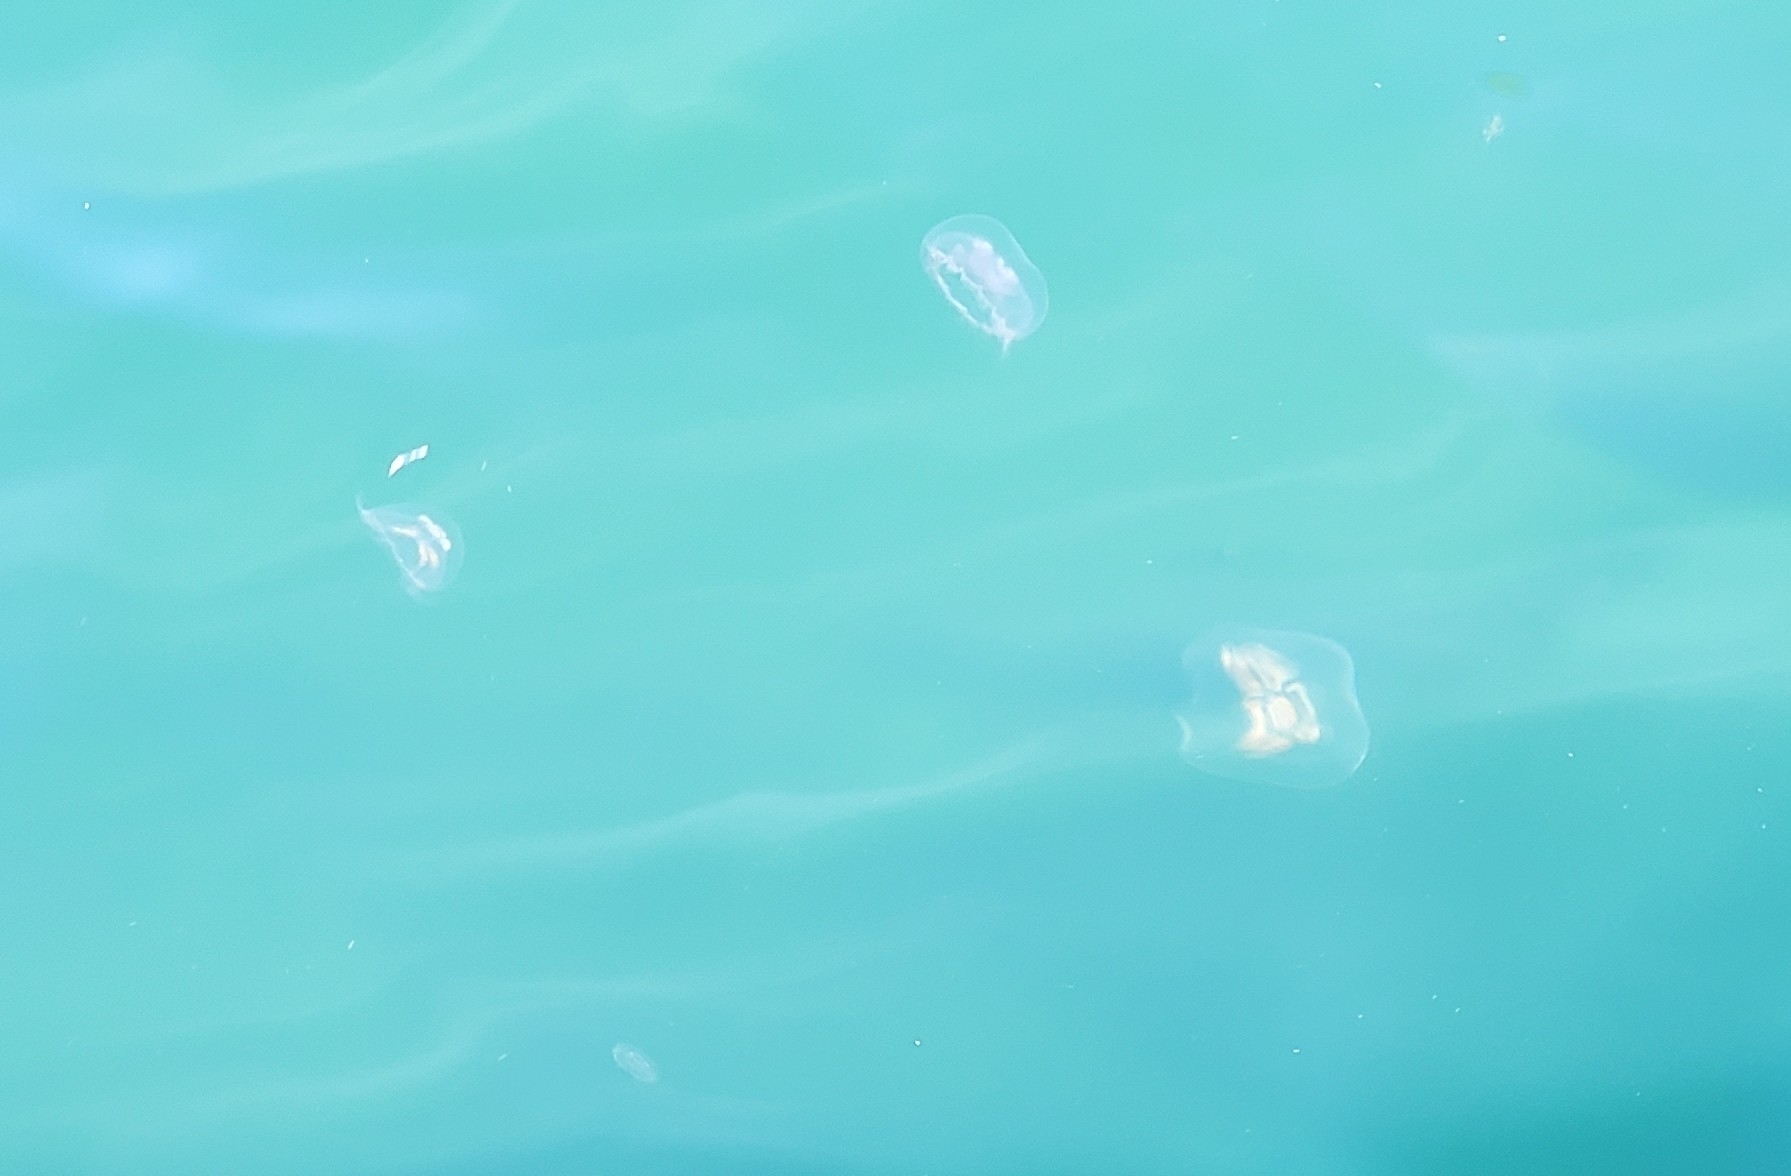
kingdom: Animalia
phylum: Cnidaria
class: Scyphozoa
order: Semaeostomeae
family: Ulmaridae
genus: Aurelia
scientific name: Aurelia aurita
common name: Moon jellyfish
